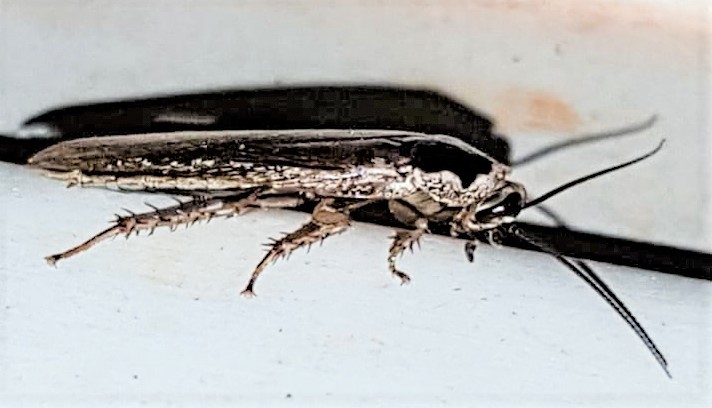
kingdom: Animalia
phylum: Arthropoda
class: Insecta
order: Blattodea
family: Blaberidae
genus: Phoetalia
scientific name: Phoetalia pallida
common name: Pale-bordered cockroach
